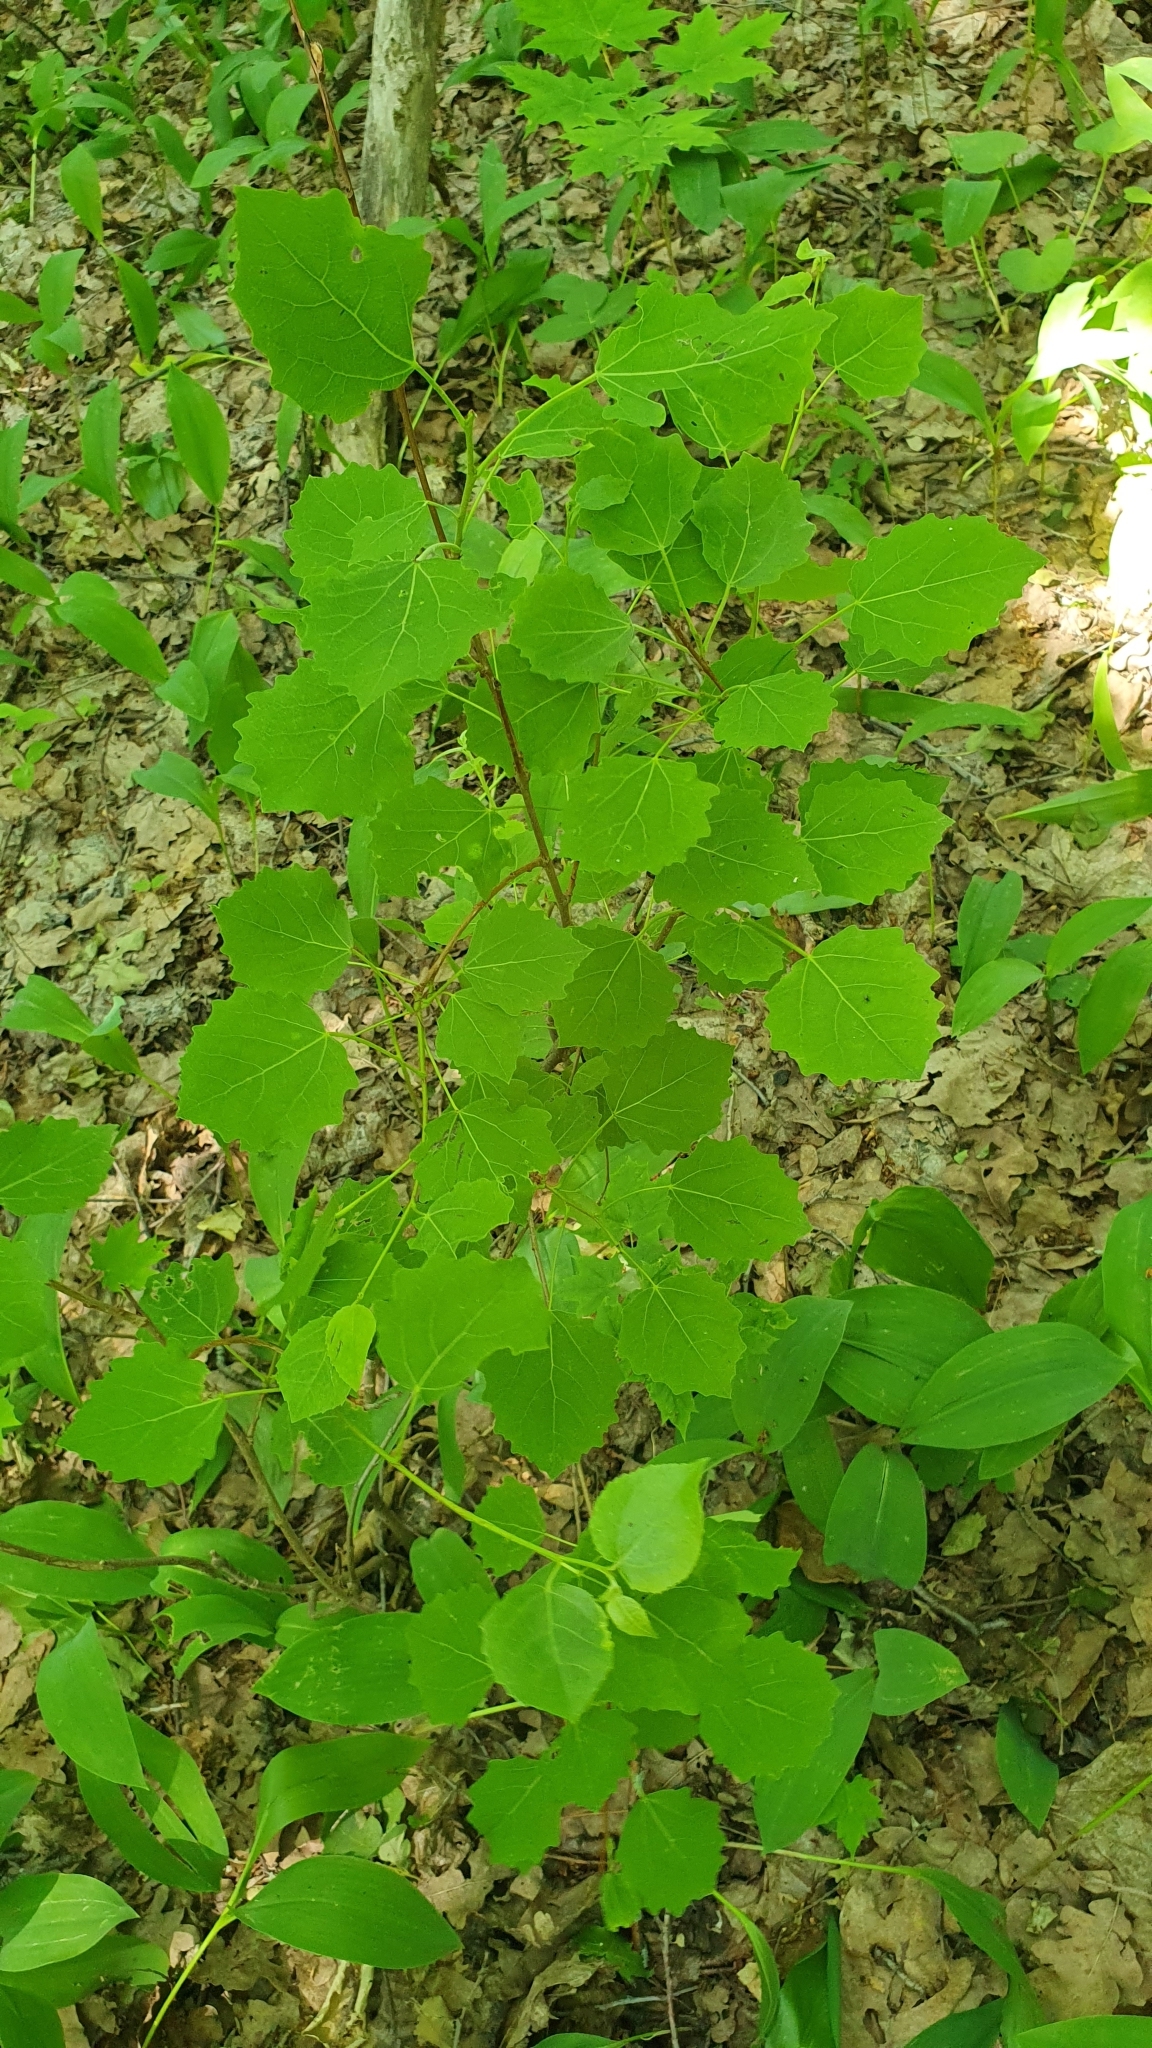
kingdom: Plantae
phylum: Tracheophyta
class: Magnoliopsida
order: Malpighiales
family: Salicaceae
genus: Populus
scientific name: Populus tremula
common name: European aspen
